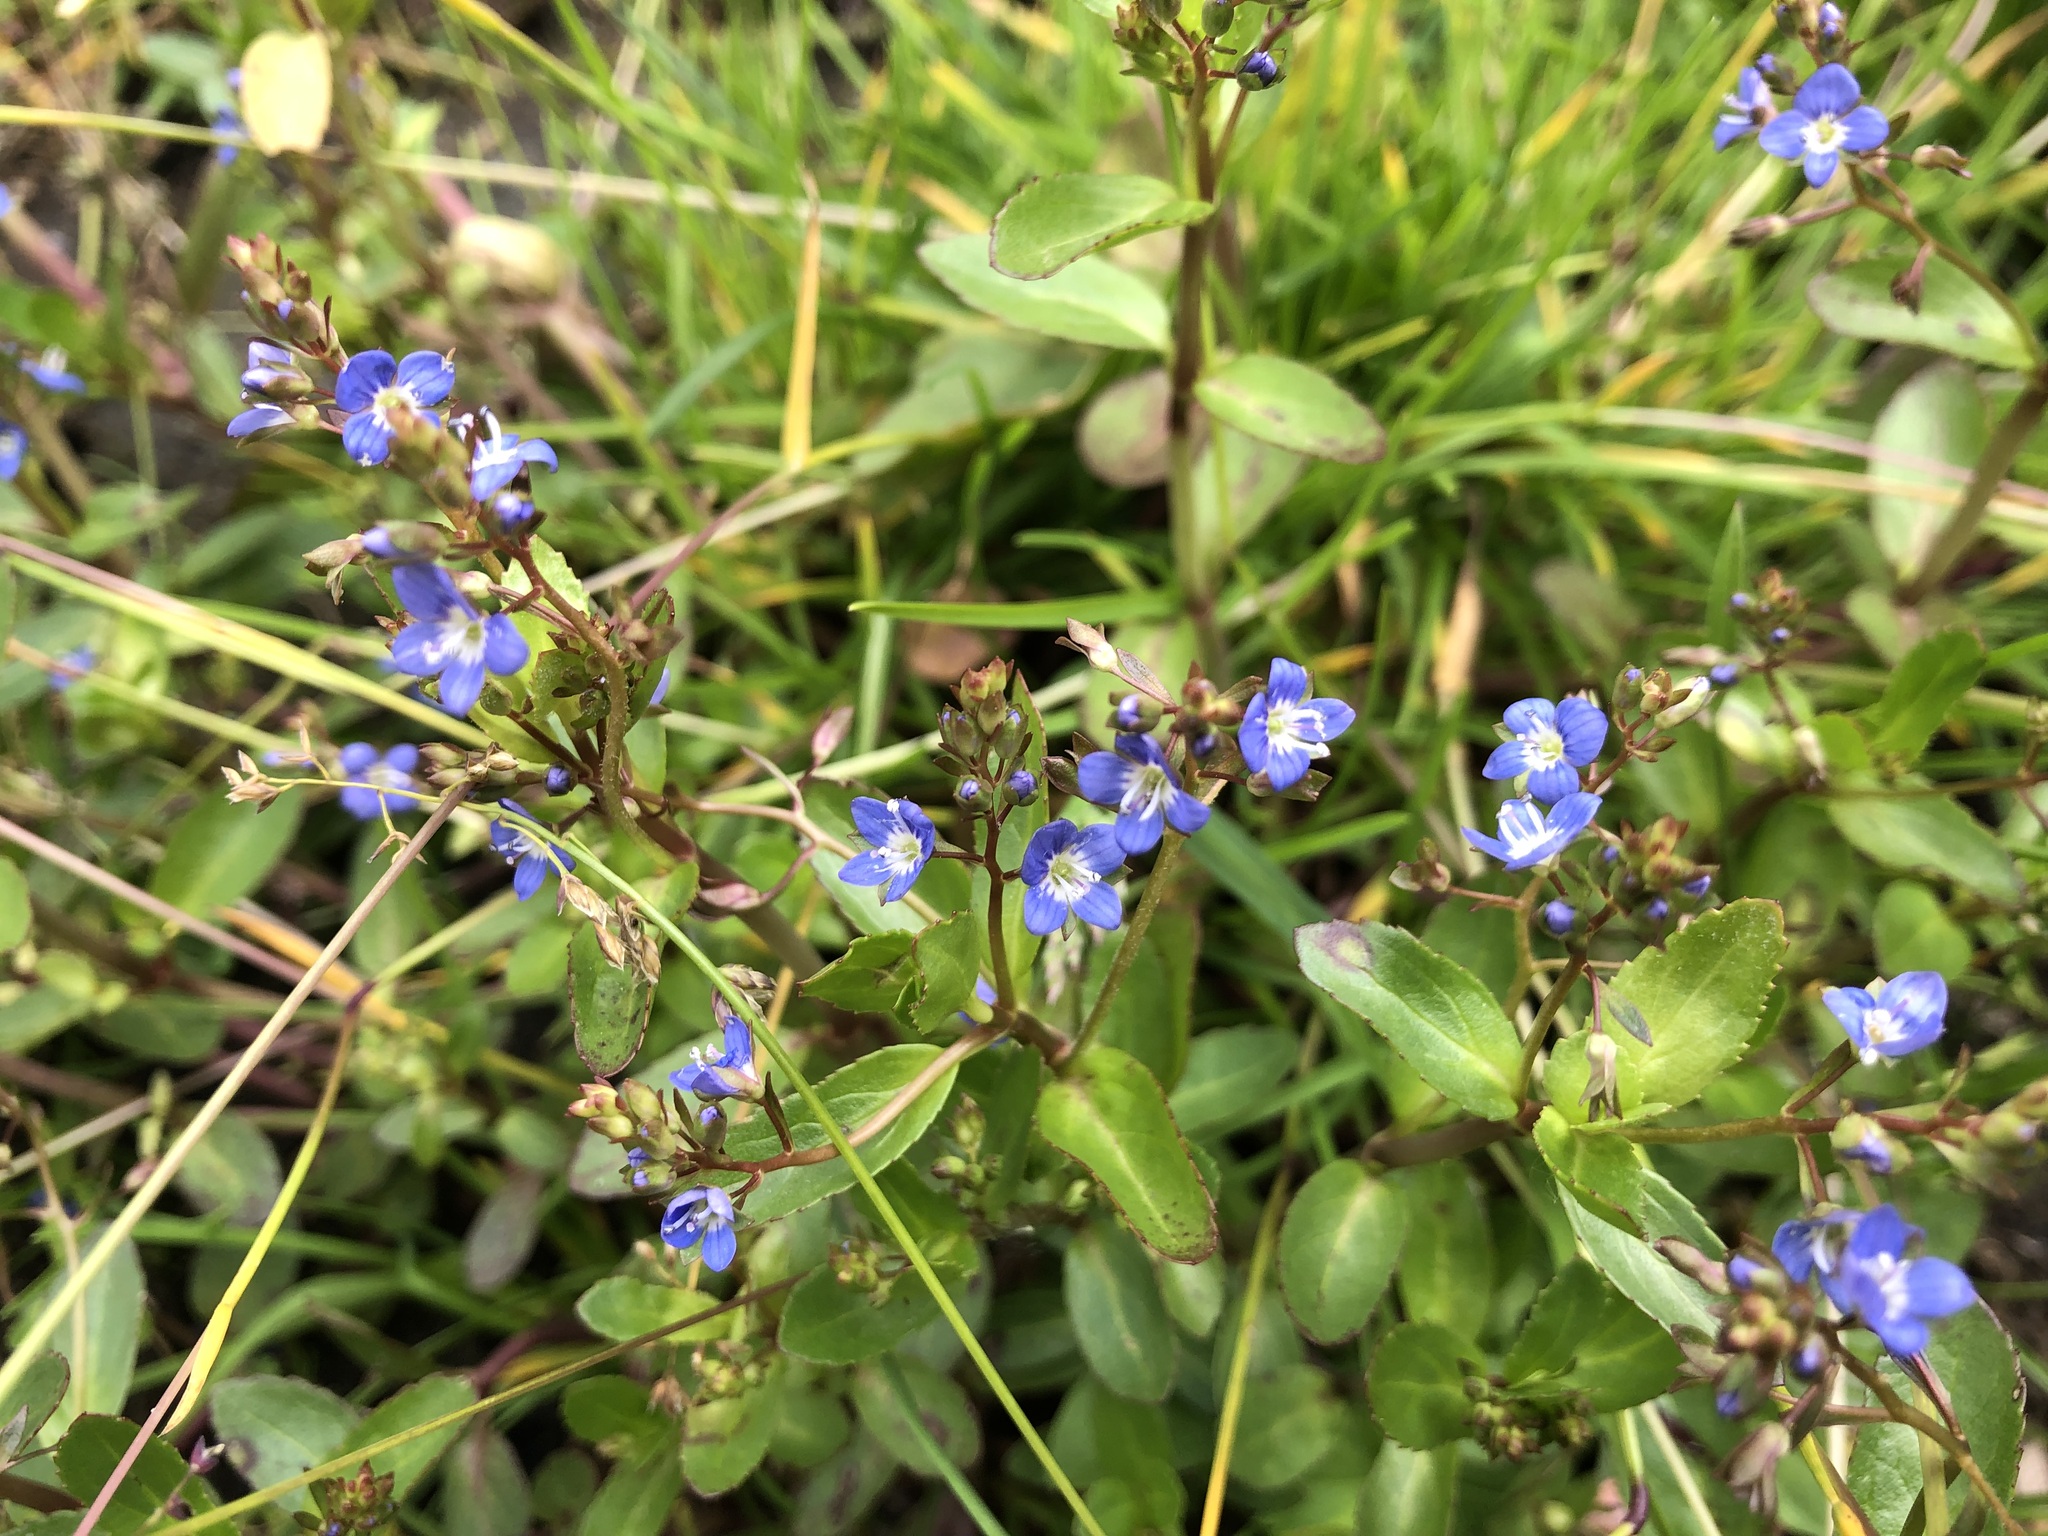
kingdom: Plantae
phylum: Tracheophyta
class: Magnoliopsida
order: Lamiales
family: Plantaginaceae
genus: Veronica
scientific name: Veronica beccabunga
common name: Brooklime
